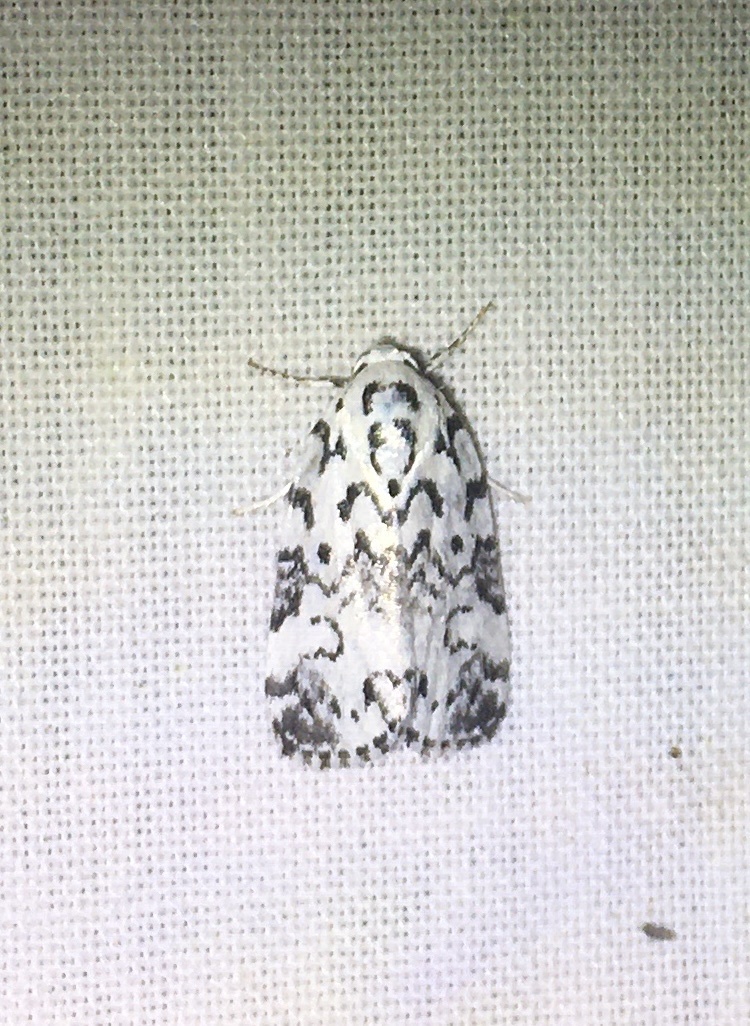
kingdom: Animalia
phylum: Arthropoda
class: Insecta
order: Lepidoptera
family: Noctuidae
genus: Polygrammate
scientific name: Polygrammate hebraeicum
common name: Hebrew moth
